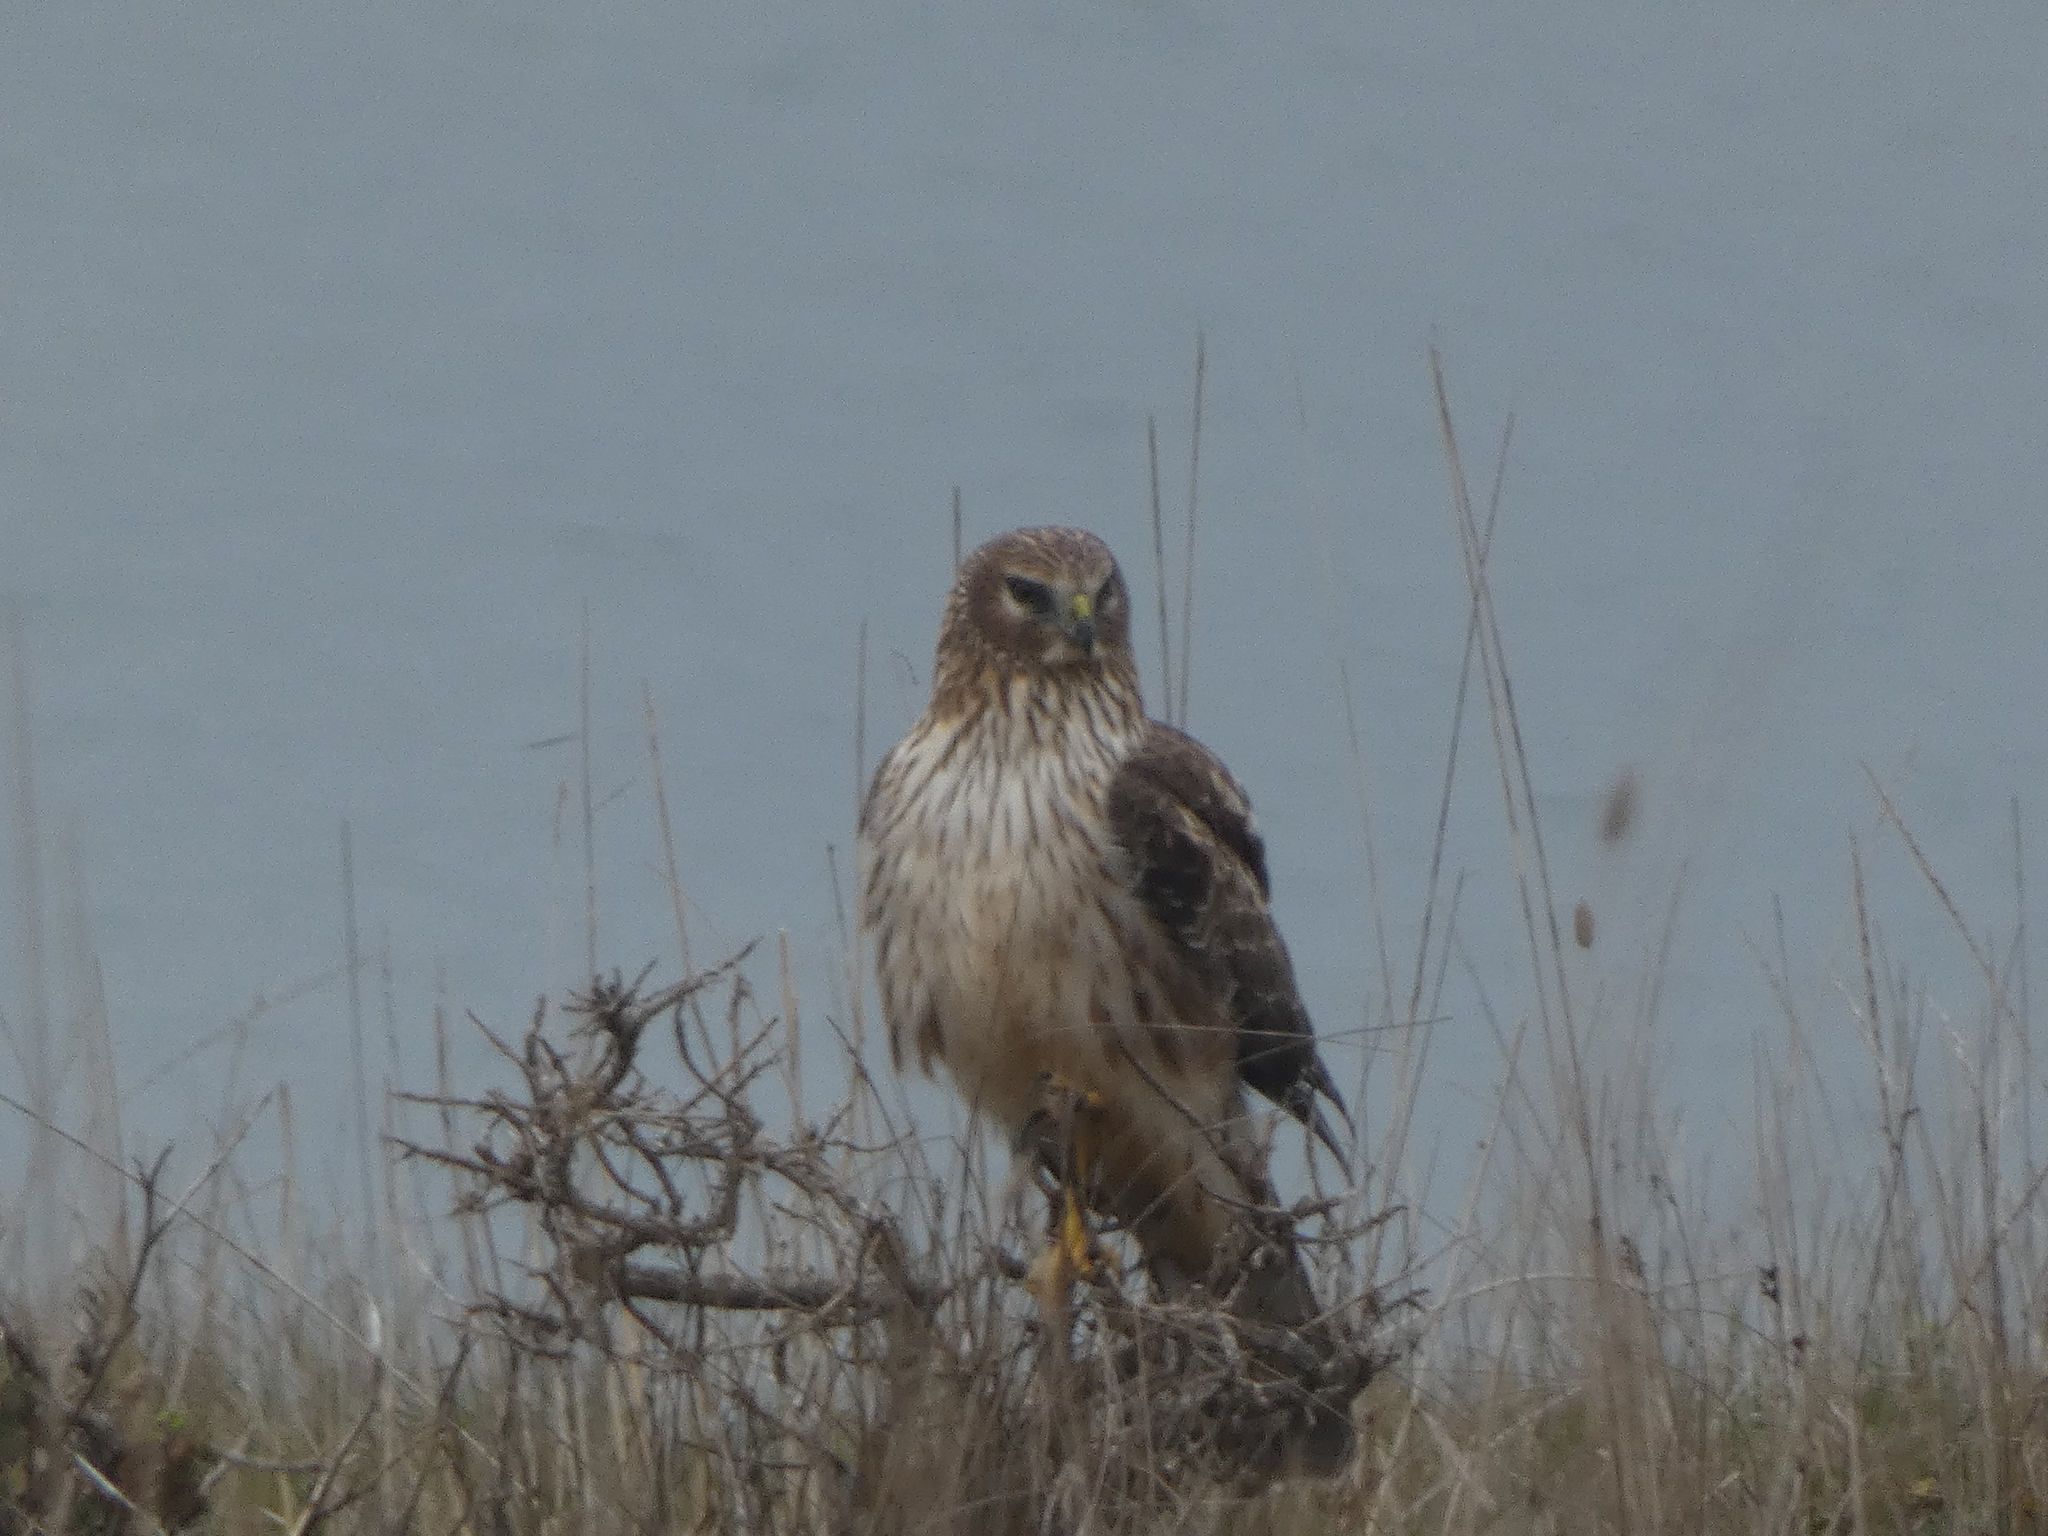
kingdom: Animalia
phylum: Chordata
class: Aves
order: Accipitriformes
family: Accipitridae
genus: Circus
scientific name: Circus cyaneus
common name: Hen harrier
